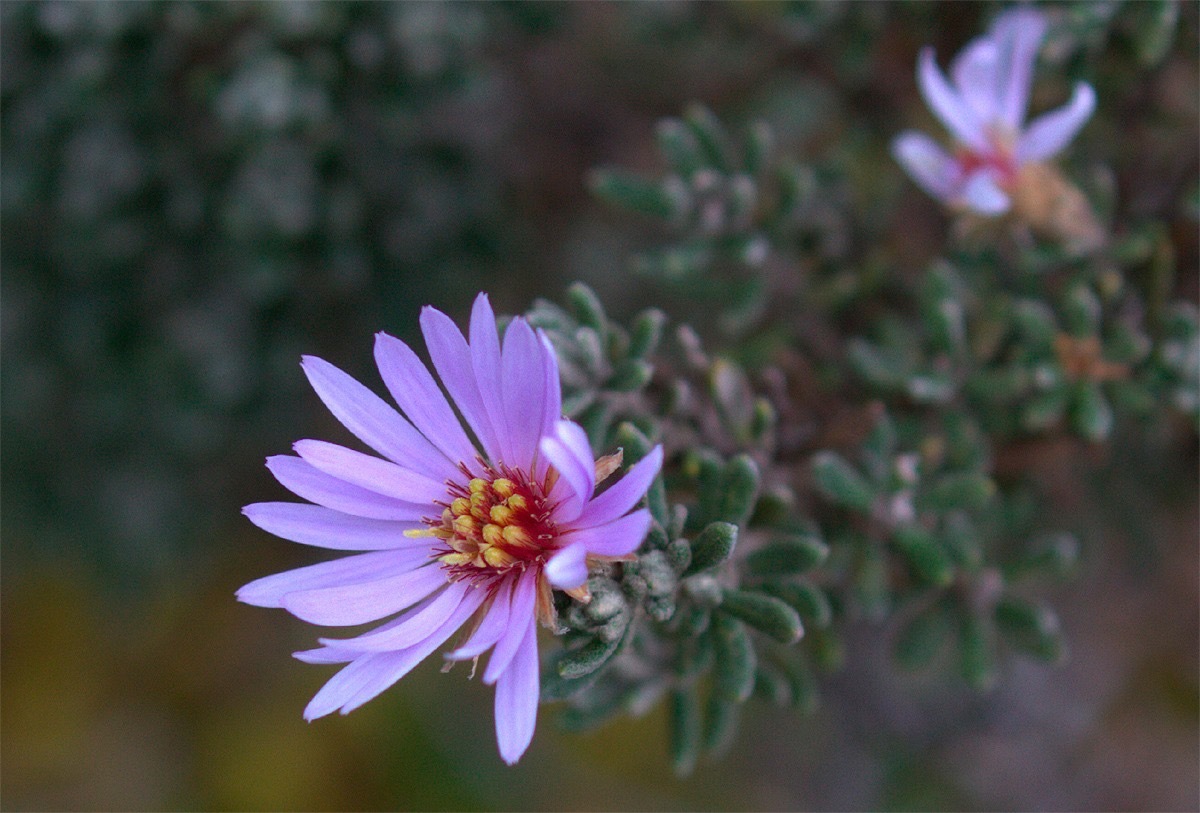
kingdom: Plantae
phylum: Tracheophyta
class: Magnoliopsida
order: Asterales
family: Asteraceae
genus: Diplostephium
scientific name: Diplostephium oblanceolatum
